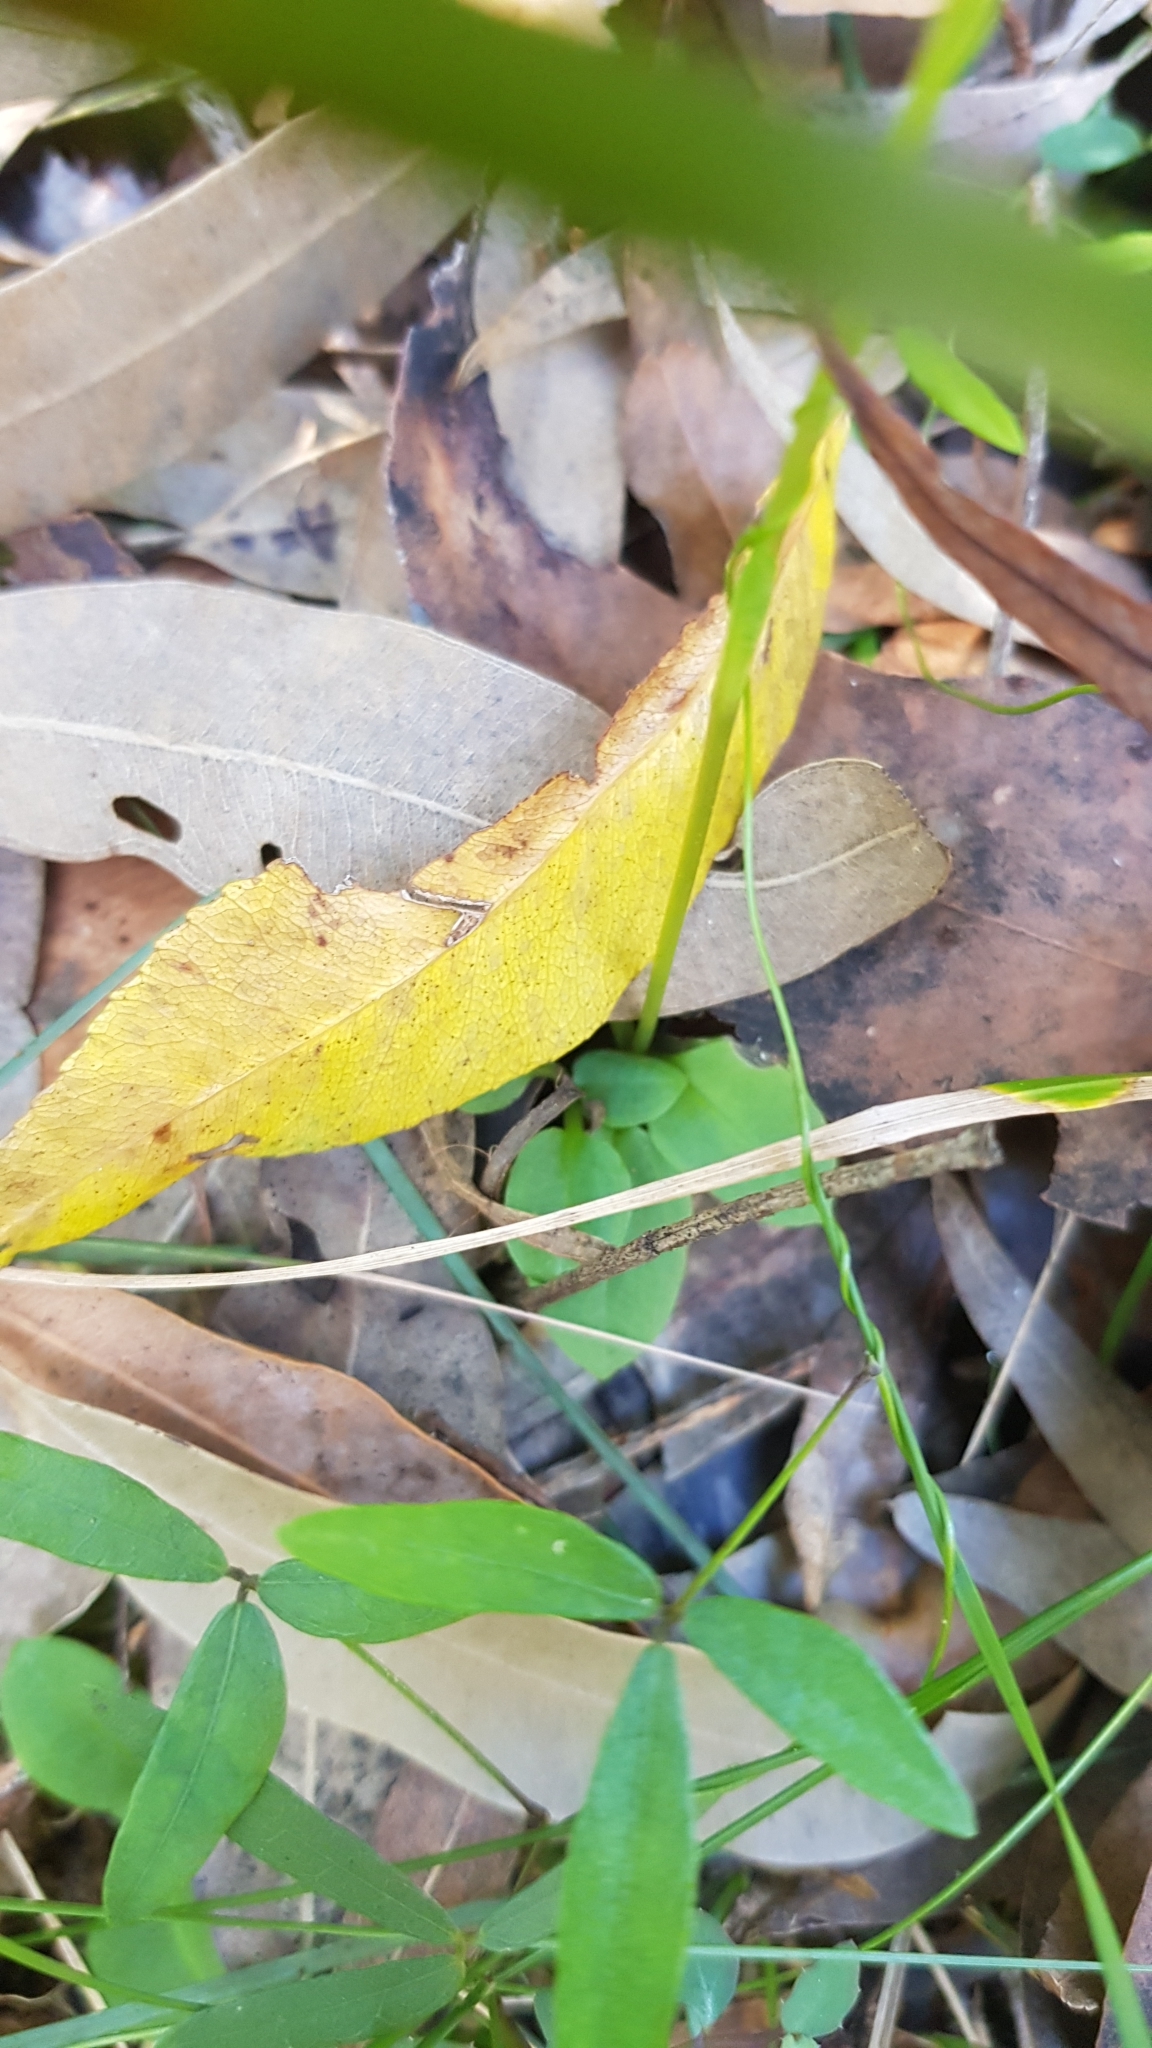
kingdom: Plantae
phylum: Tracheophyta
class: Liliopsida
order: Asparagales
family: Orchidaceae
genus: Pterostylis
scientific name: Pterostylis acuminata
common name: Pointed greenhood
